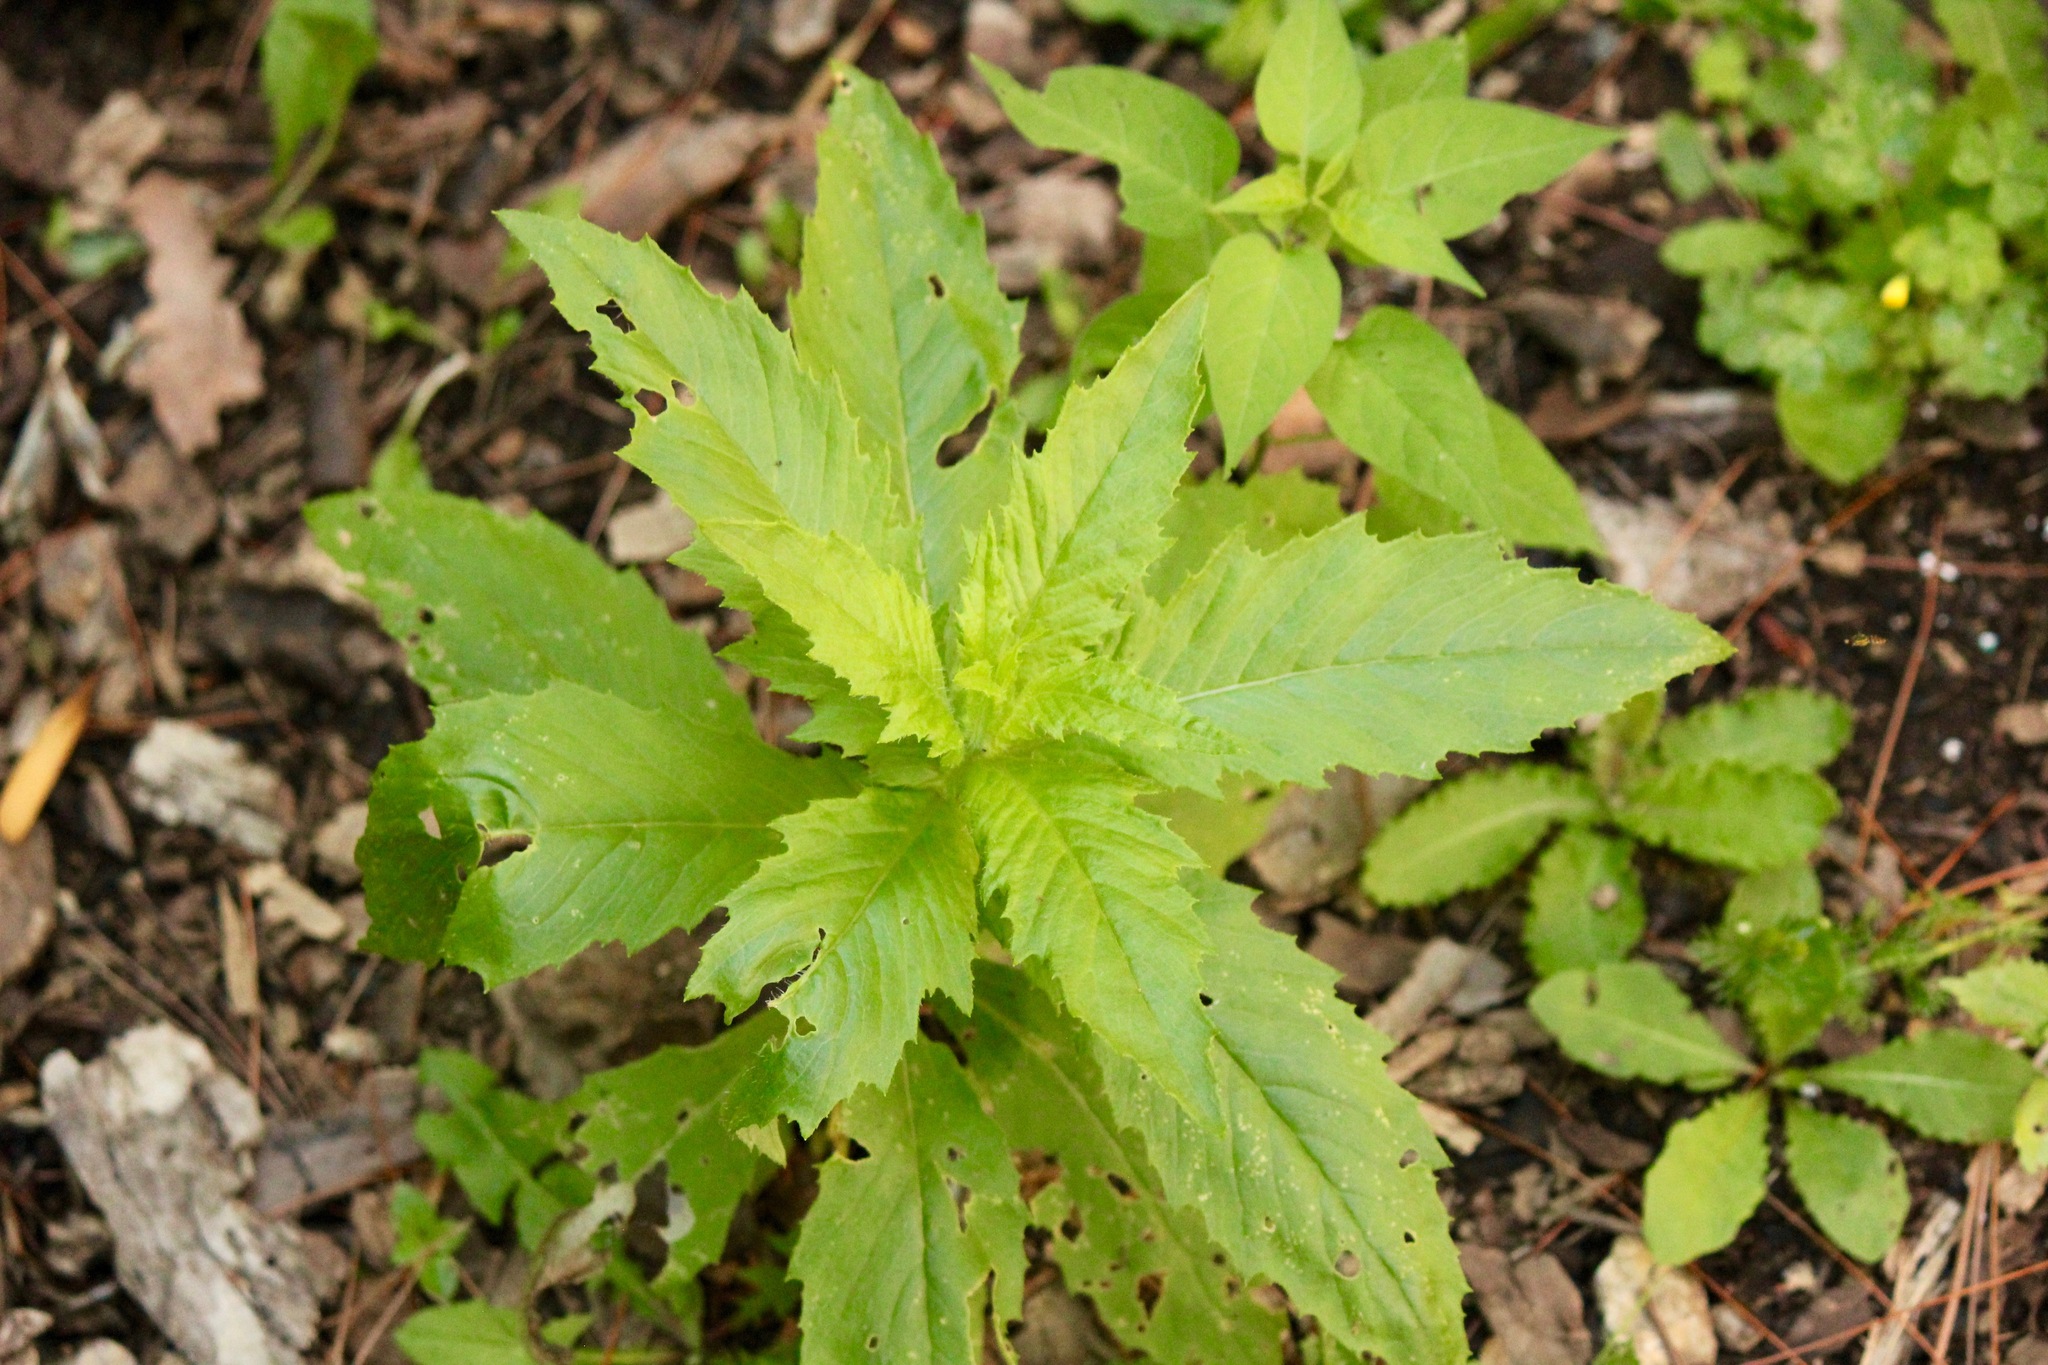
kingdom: Plantae
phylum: Tracheophyta
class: Magnoliopsida
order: Asterales
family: Asteraceae
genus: Erechtites
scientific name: Erechtites hieraciifolius
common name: American burnweed
